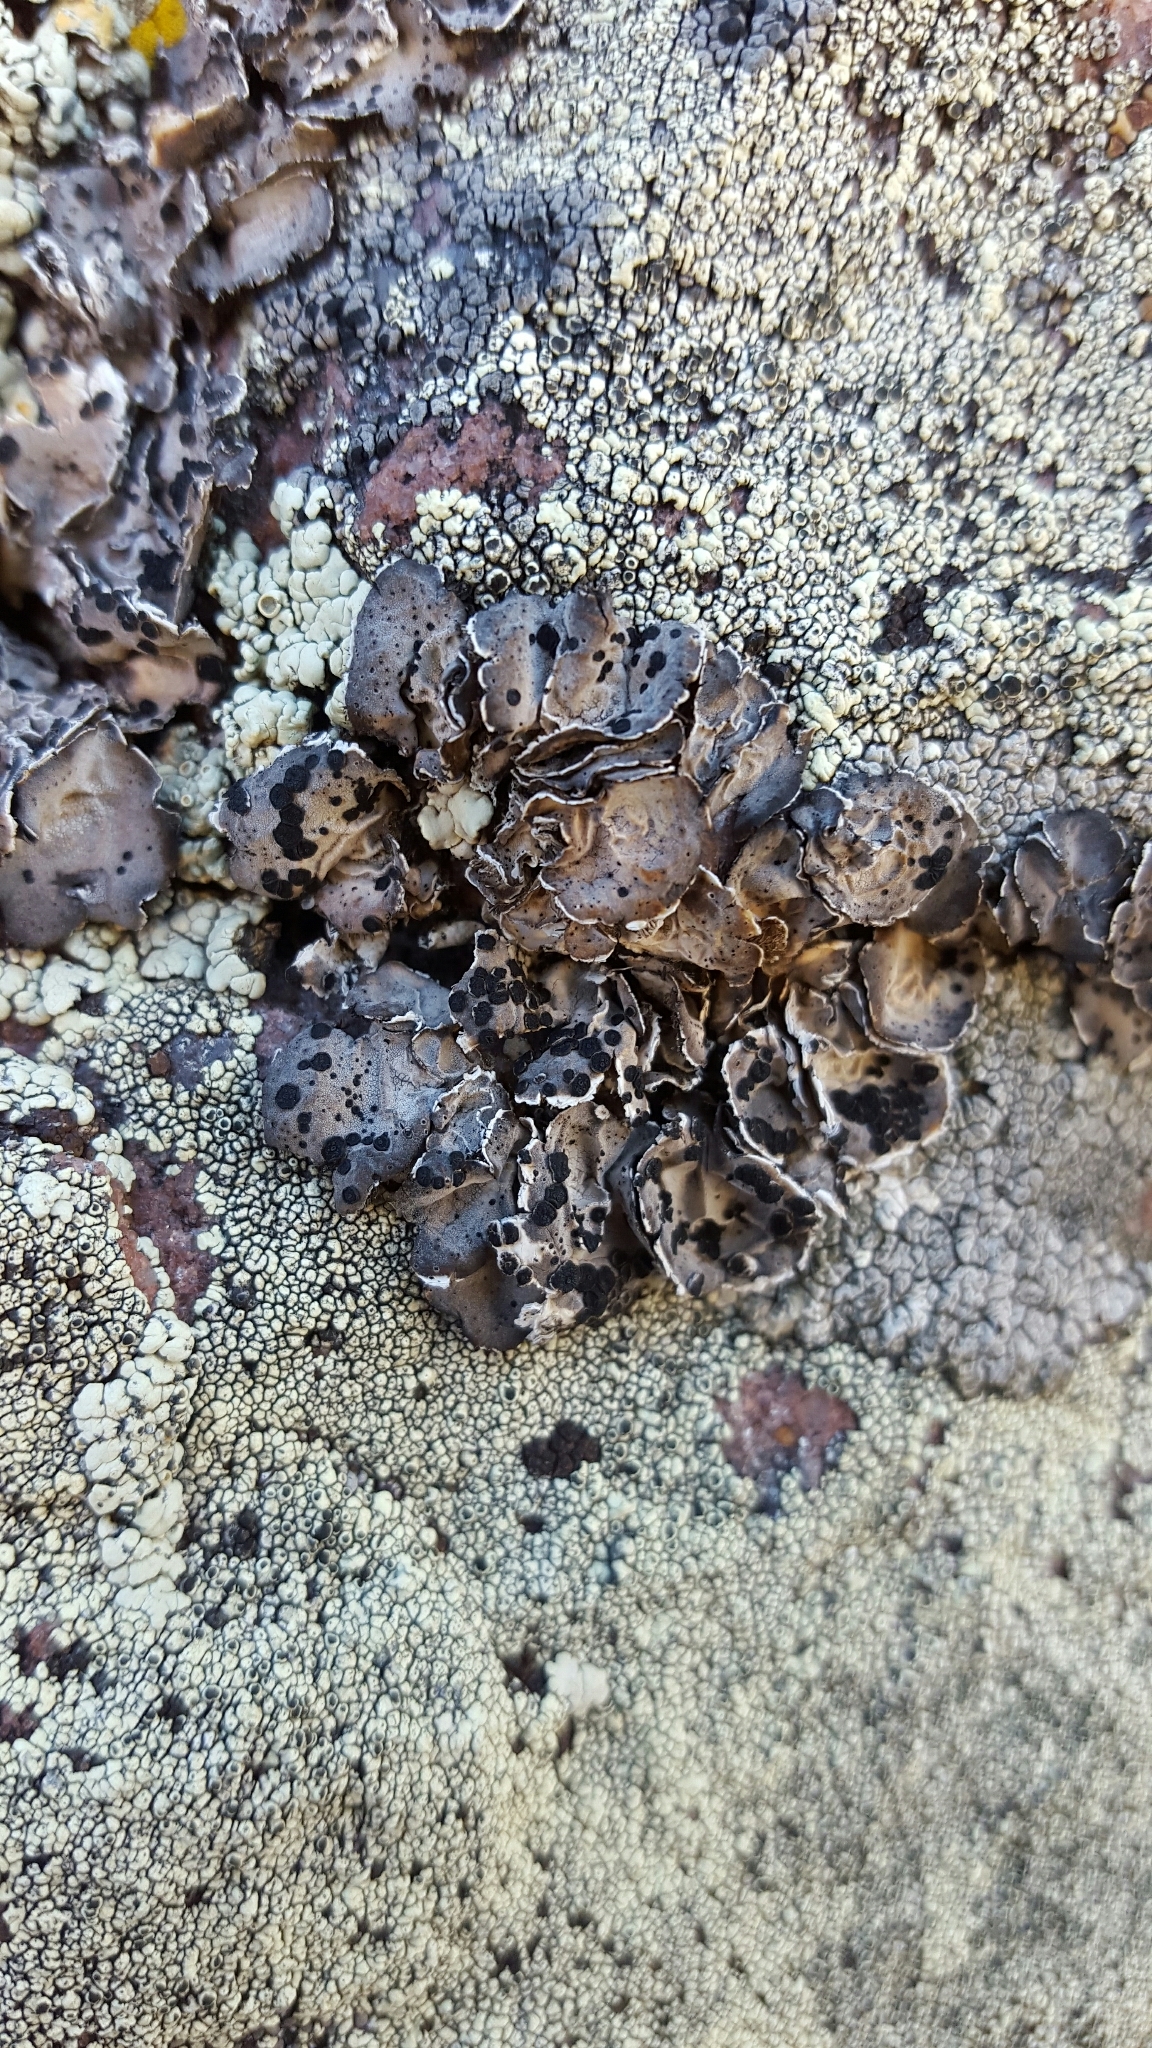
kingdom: Fungi
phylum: Ascomycota
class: Lecanoromycetes
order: Umbilicariales
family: Umbilicariaceae
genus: Umbilicaria
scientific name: Umbilicaria virginis
